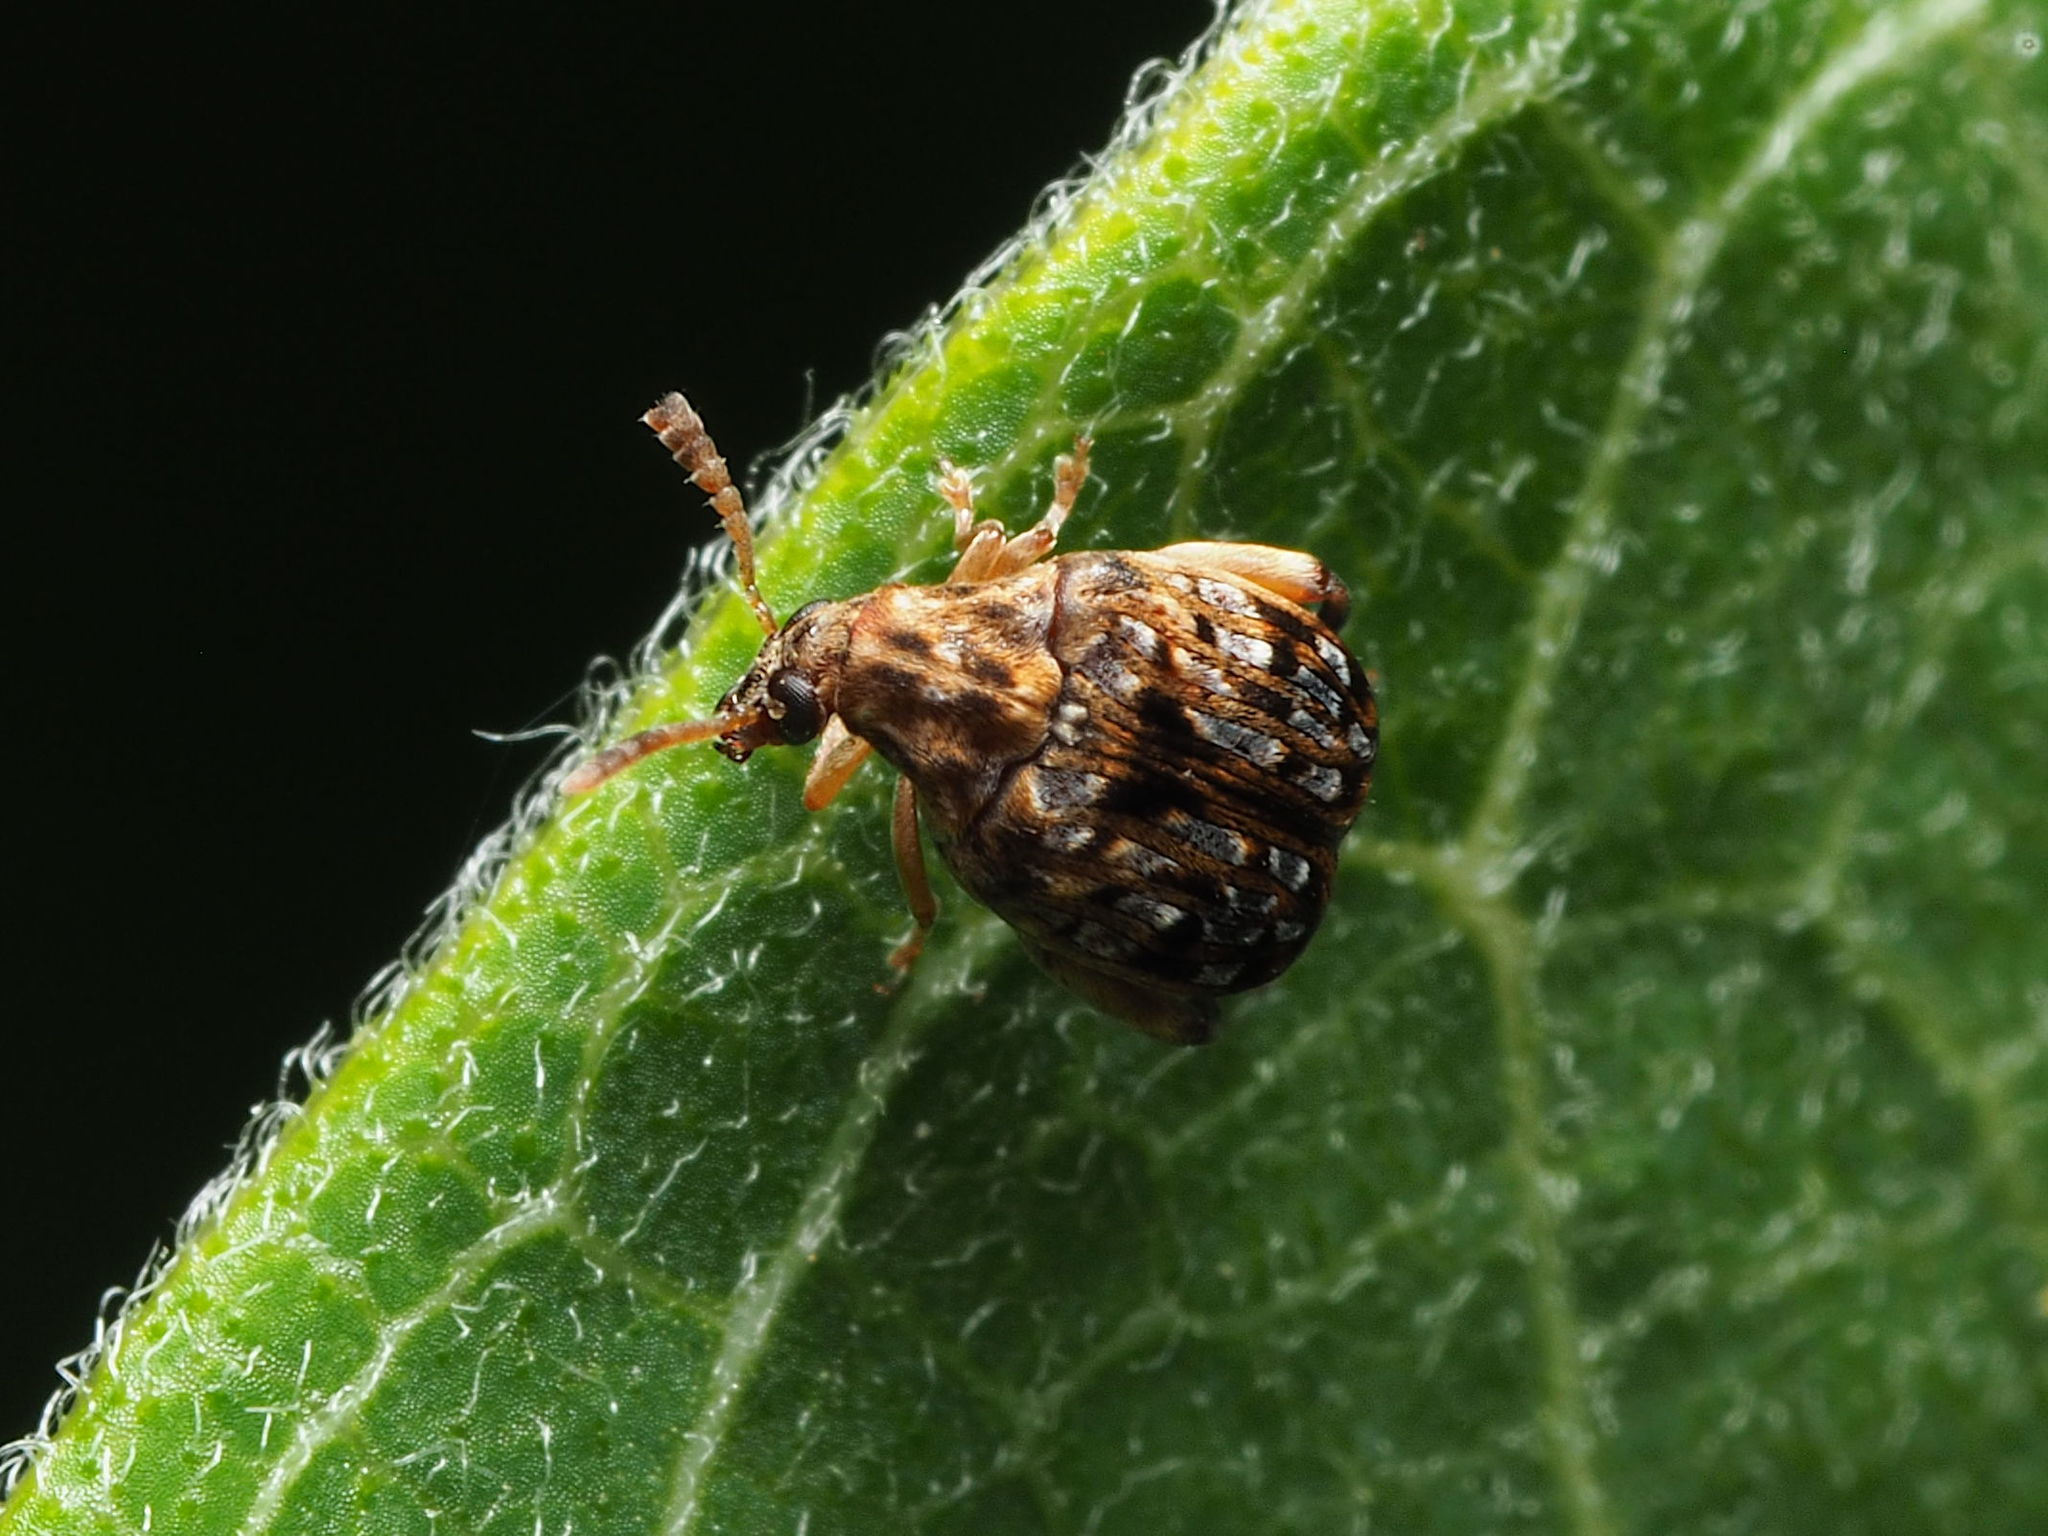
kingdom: Animalia
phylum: Arthropoda
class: Insecta
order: Coleoptera
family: Chrysomelidae
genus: Gibbobruchus
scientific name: Gibbobruchus mimus
